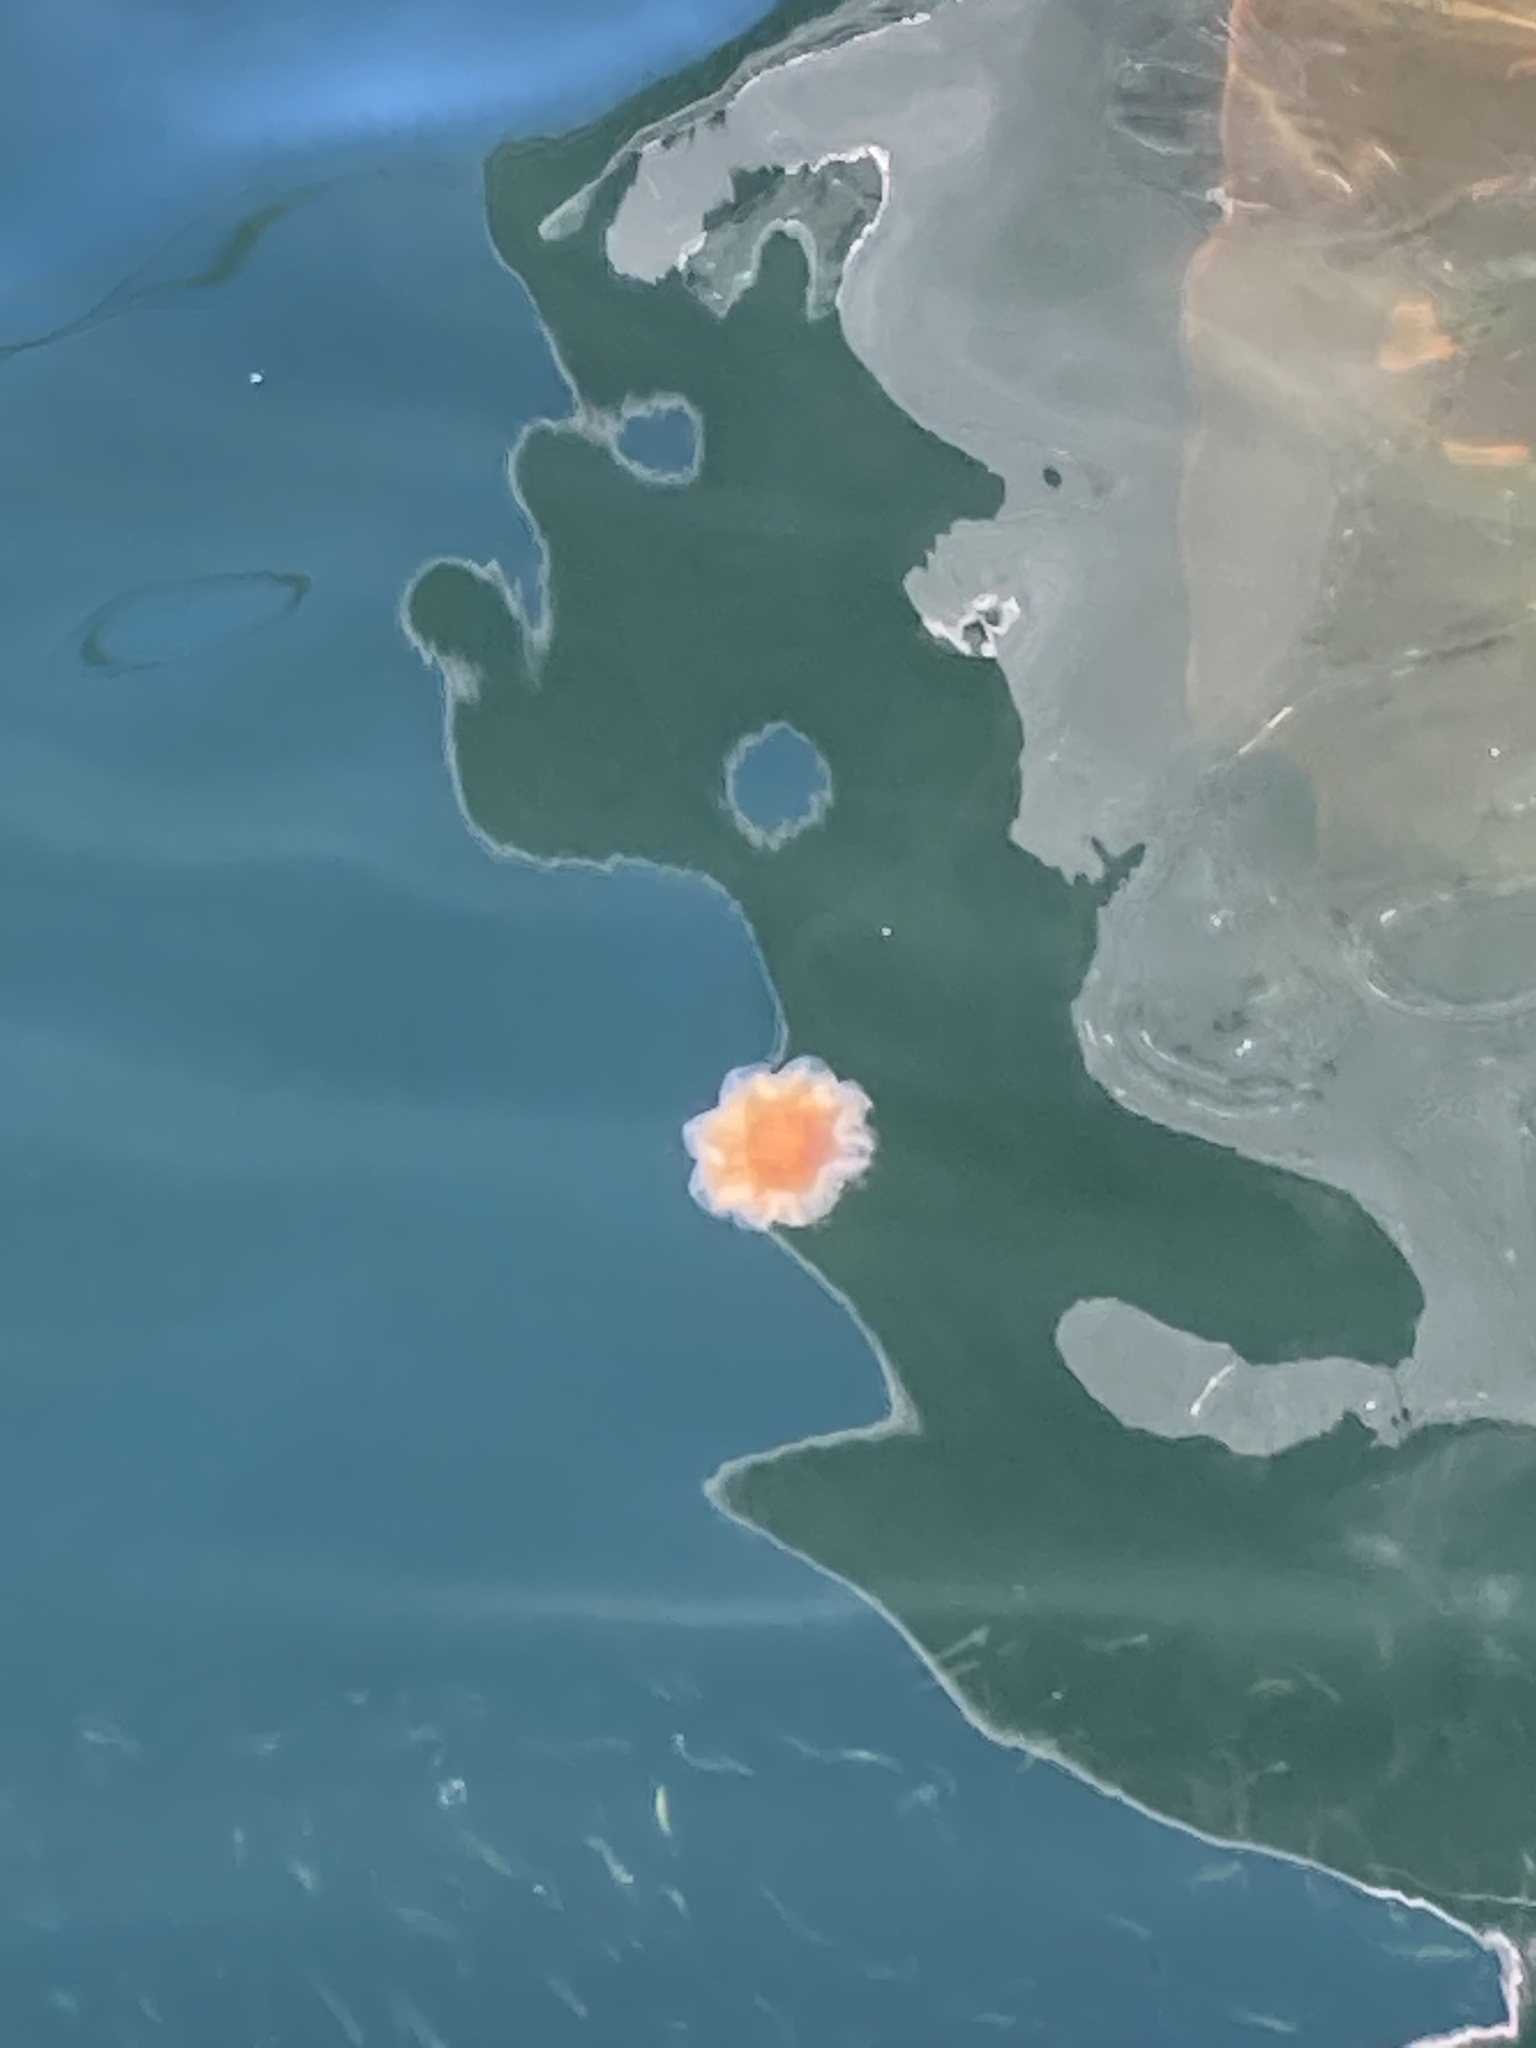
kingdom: Animalia
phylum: Cnidaria
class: Scyphozoa
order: Semaeostomeae
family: Cyaneidae
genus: Cyanea
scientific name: Cyanea capillata
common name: Lion's mane jellyfish
